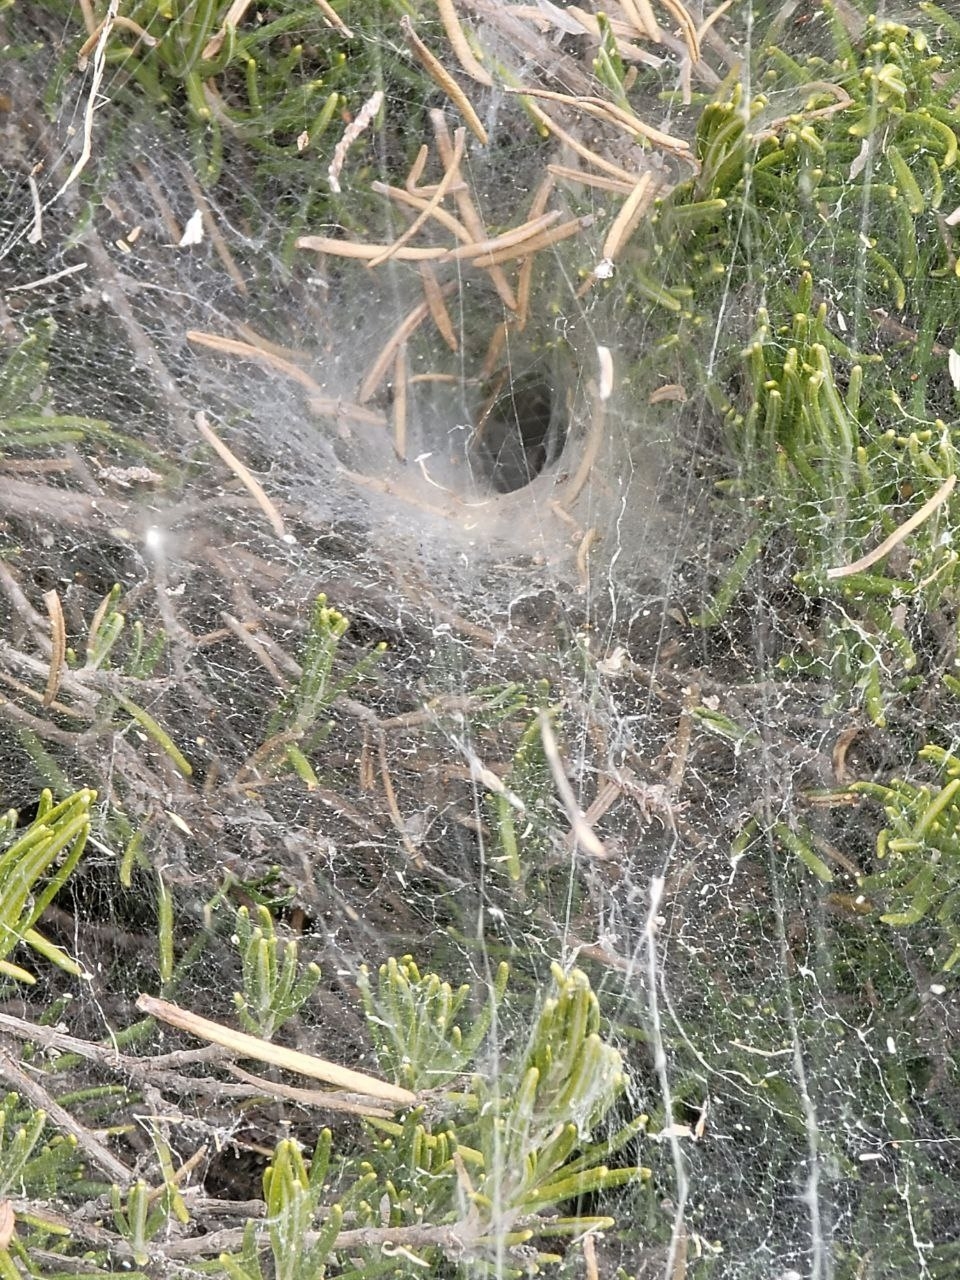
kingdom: Animalia
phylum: Arthropoda
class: Arachnida
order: Araneae
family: Agelenidae
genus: Agelena
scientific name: Agelena labyrinthica
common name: Labyrinth spider
